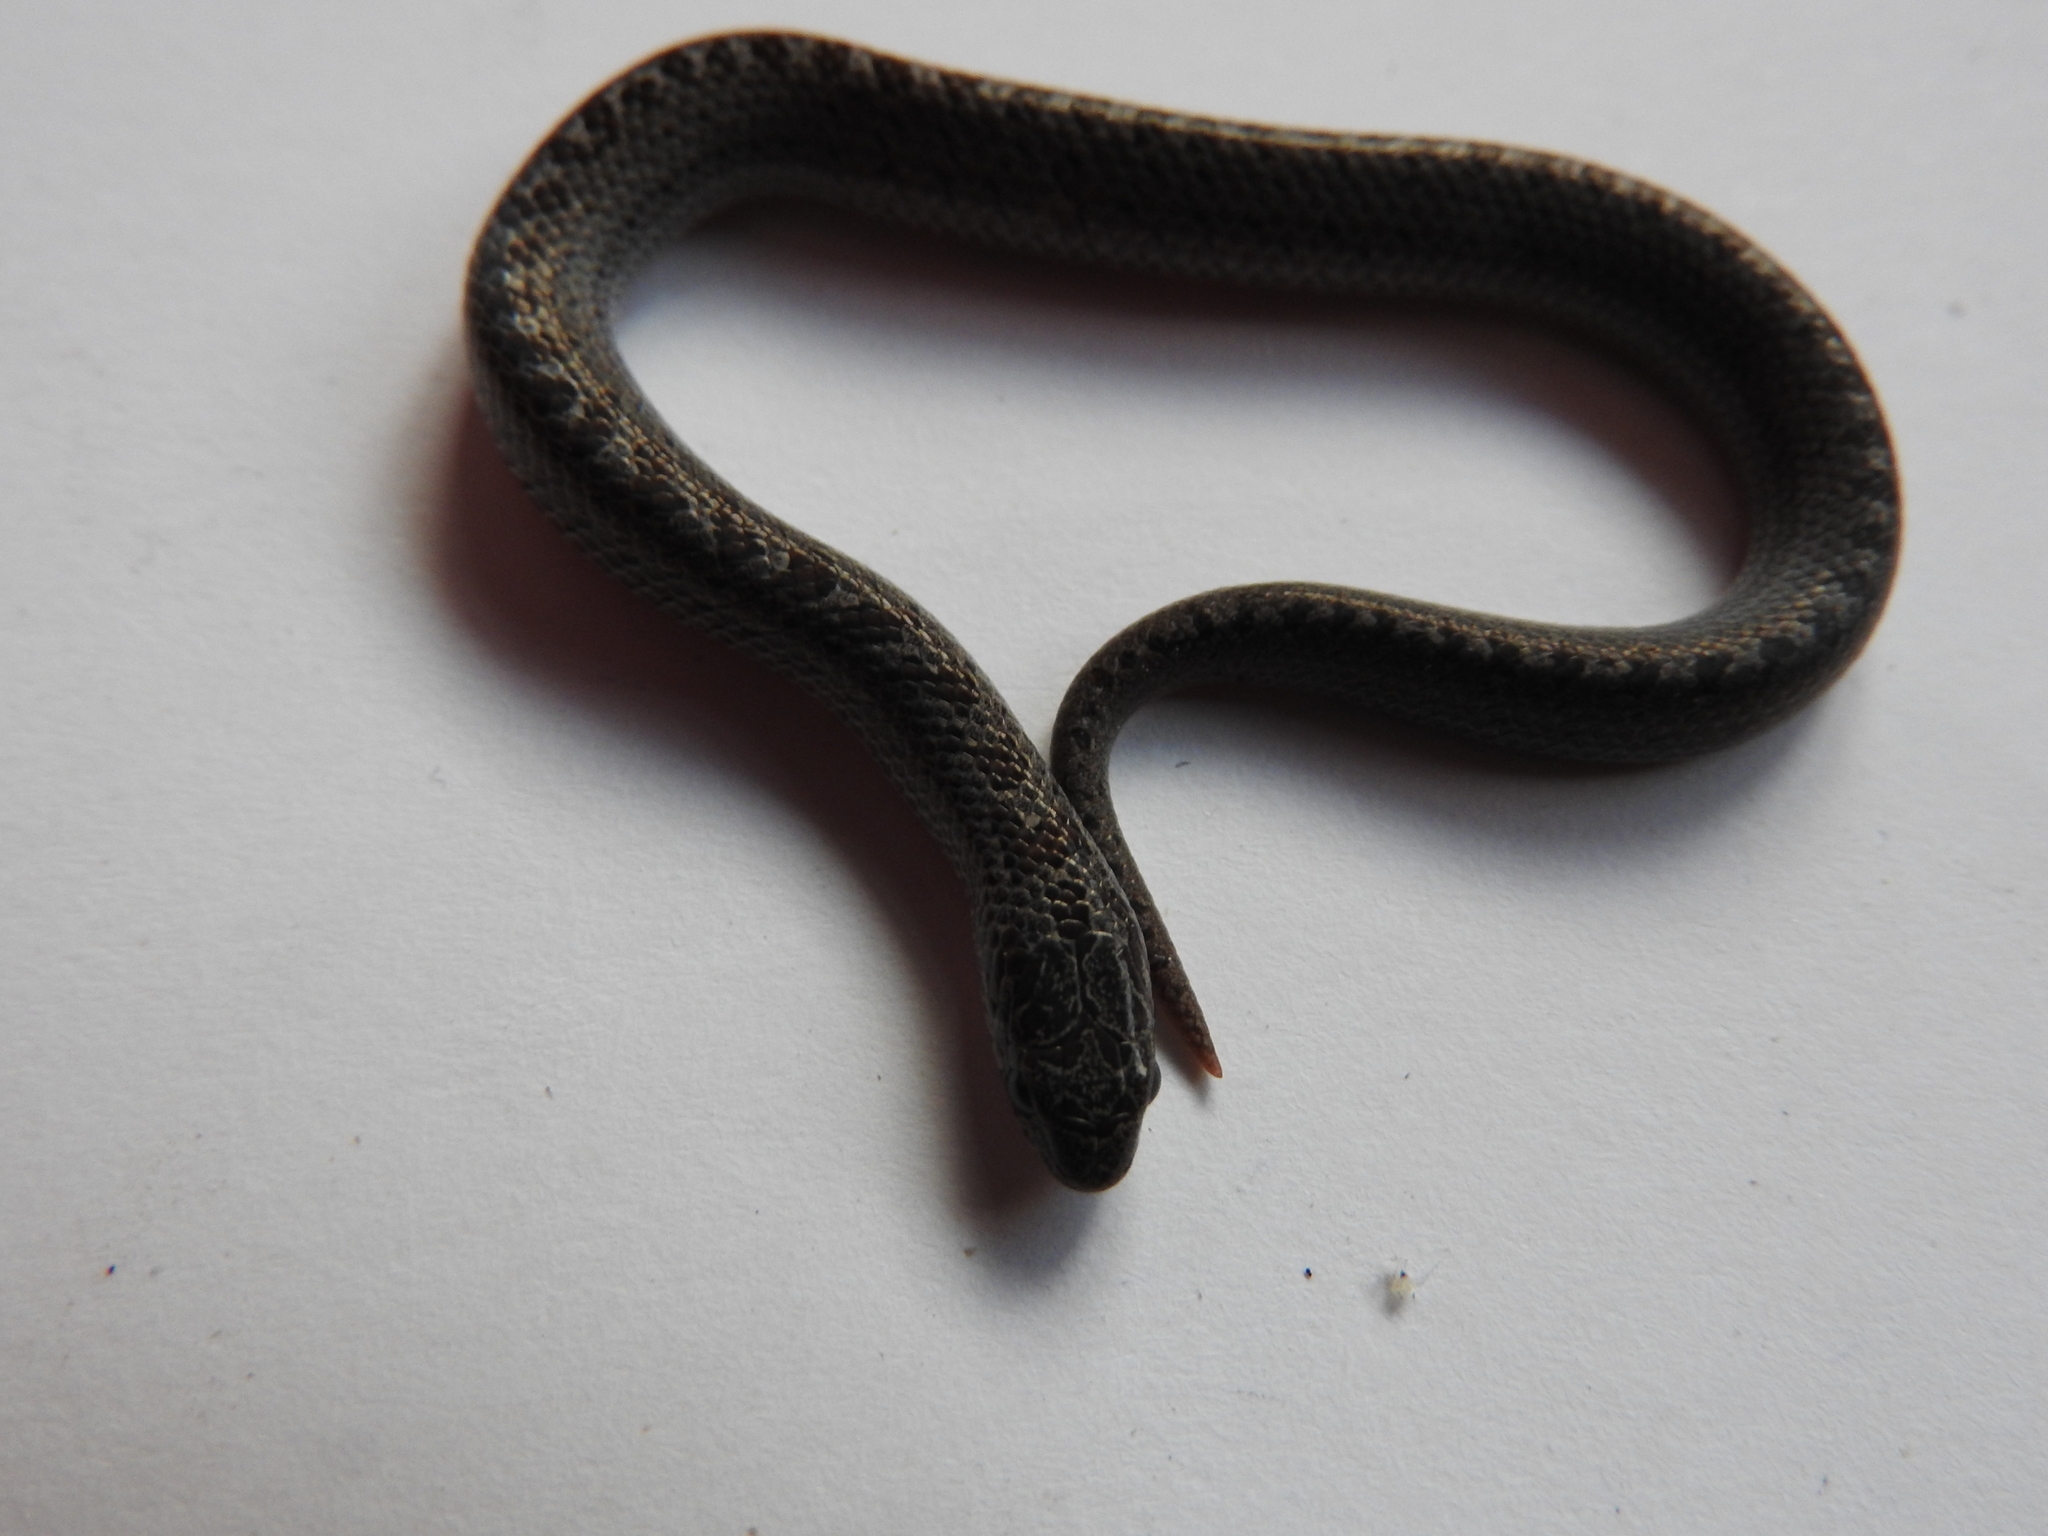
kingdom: Animalia
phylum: Chordata
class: Squamata
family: Colubridae
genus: Conopsis
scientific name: Conopsis nasus
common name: Largenose earth snake
